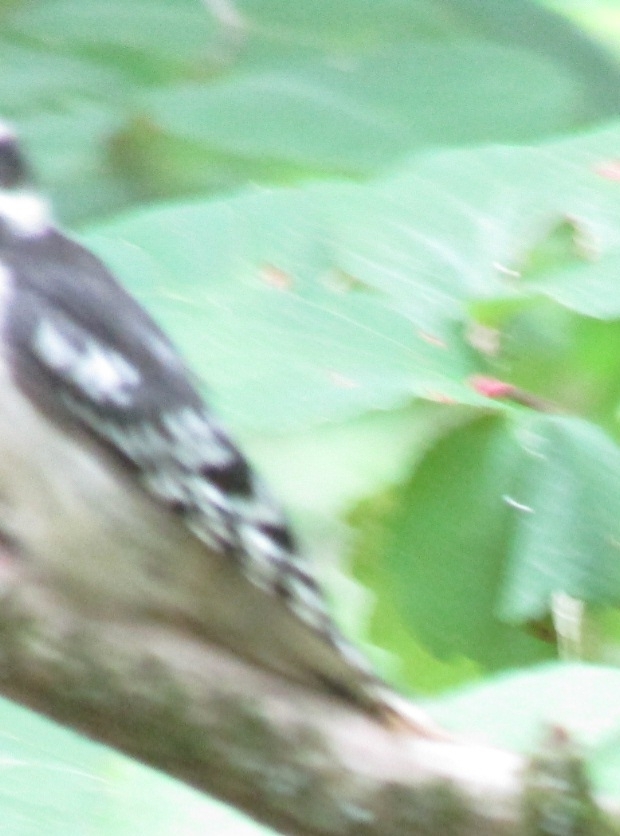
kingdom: Animalia
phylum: Chordata
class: Aves
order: Piciformes
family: Picidae
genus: Dryobates
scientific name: Dryobates pubescens
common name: Downy woodpecker
